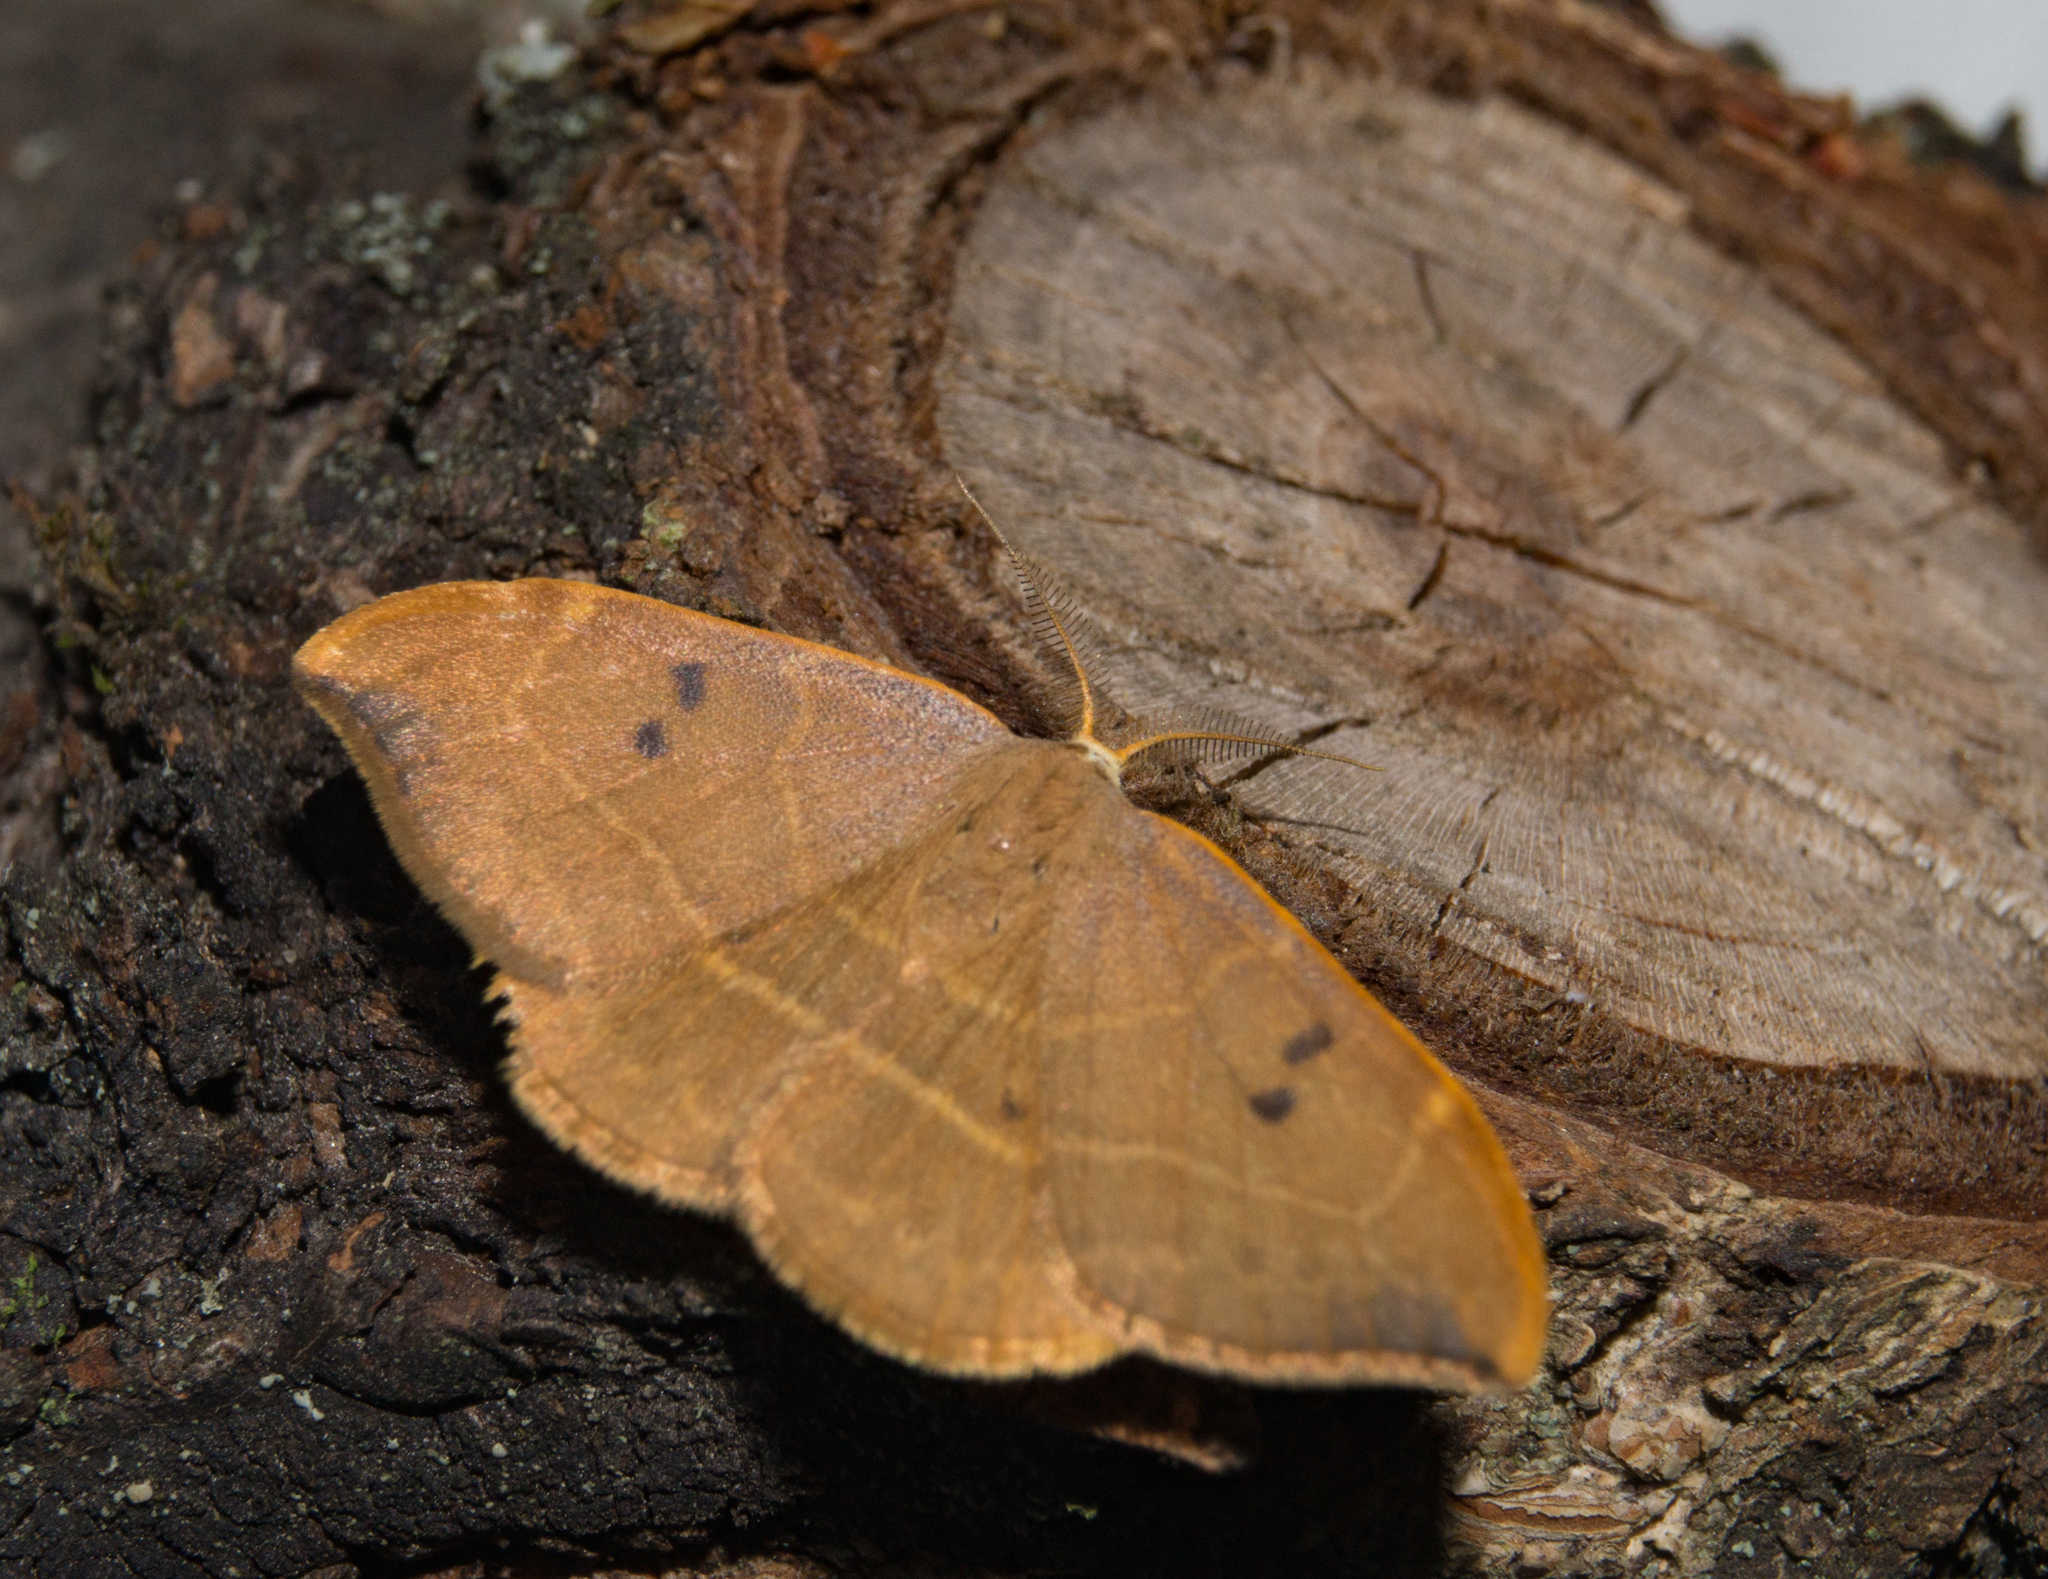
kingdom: Animalia
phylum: Arthropoda
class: Insecta
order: Lepidoptera
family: Drepanidae
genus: Watsonalla
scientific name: Watsonalla binaria
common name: Oak hook-tip
